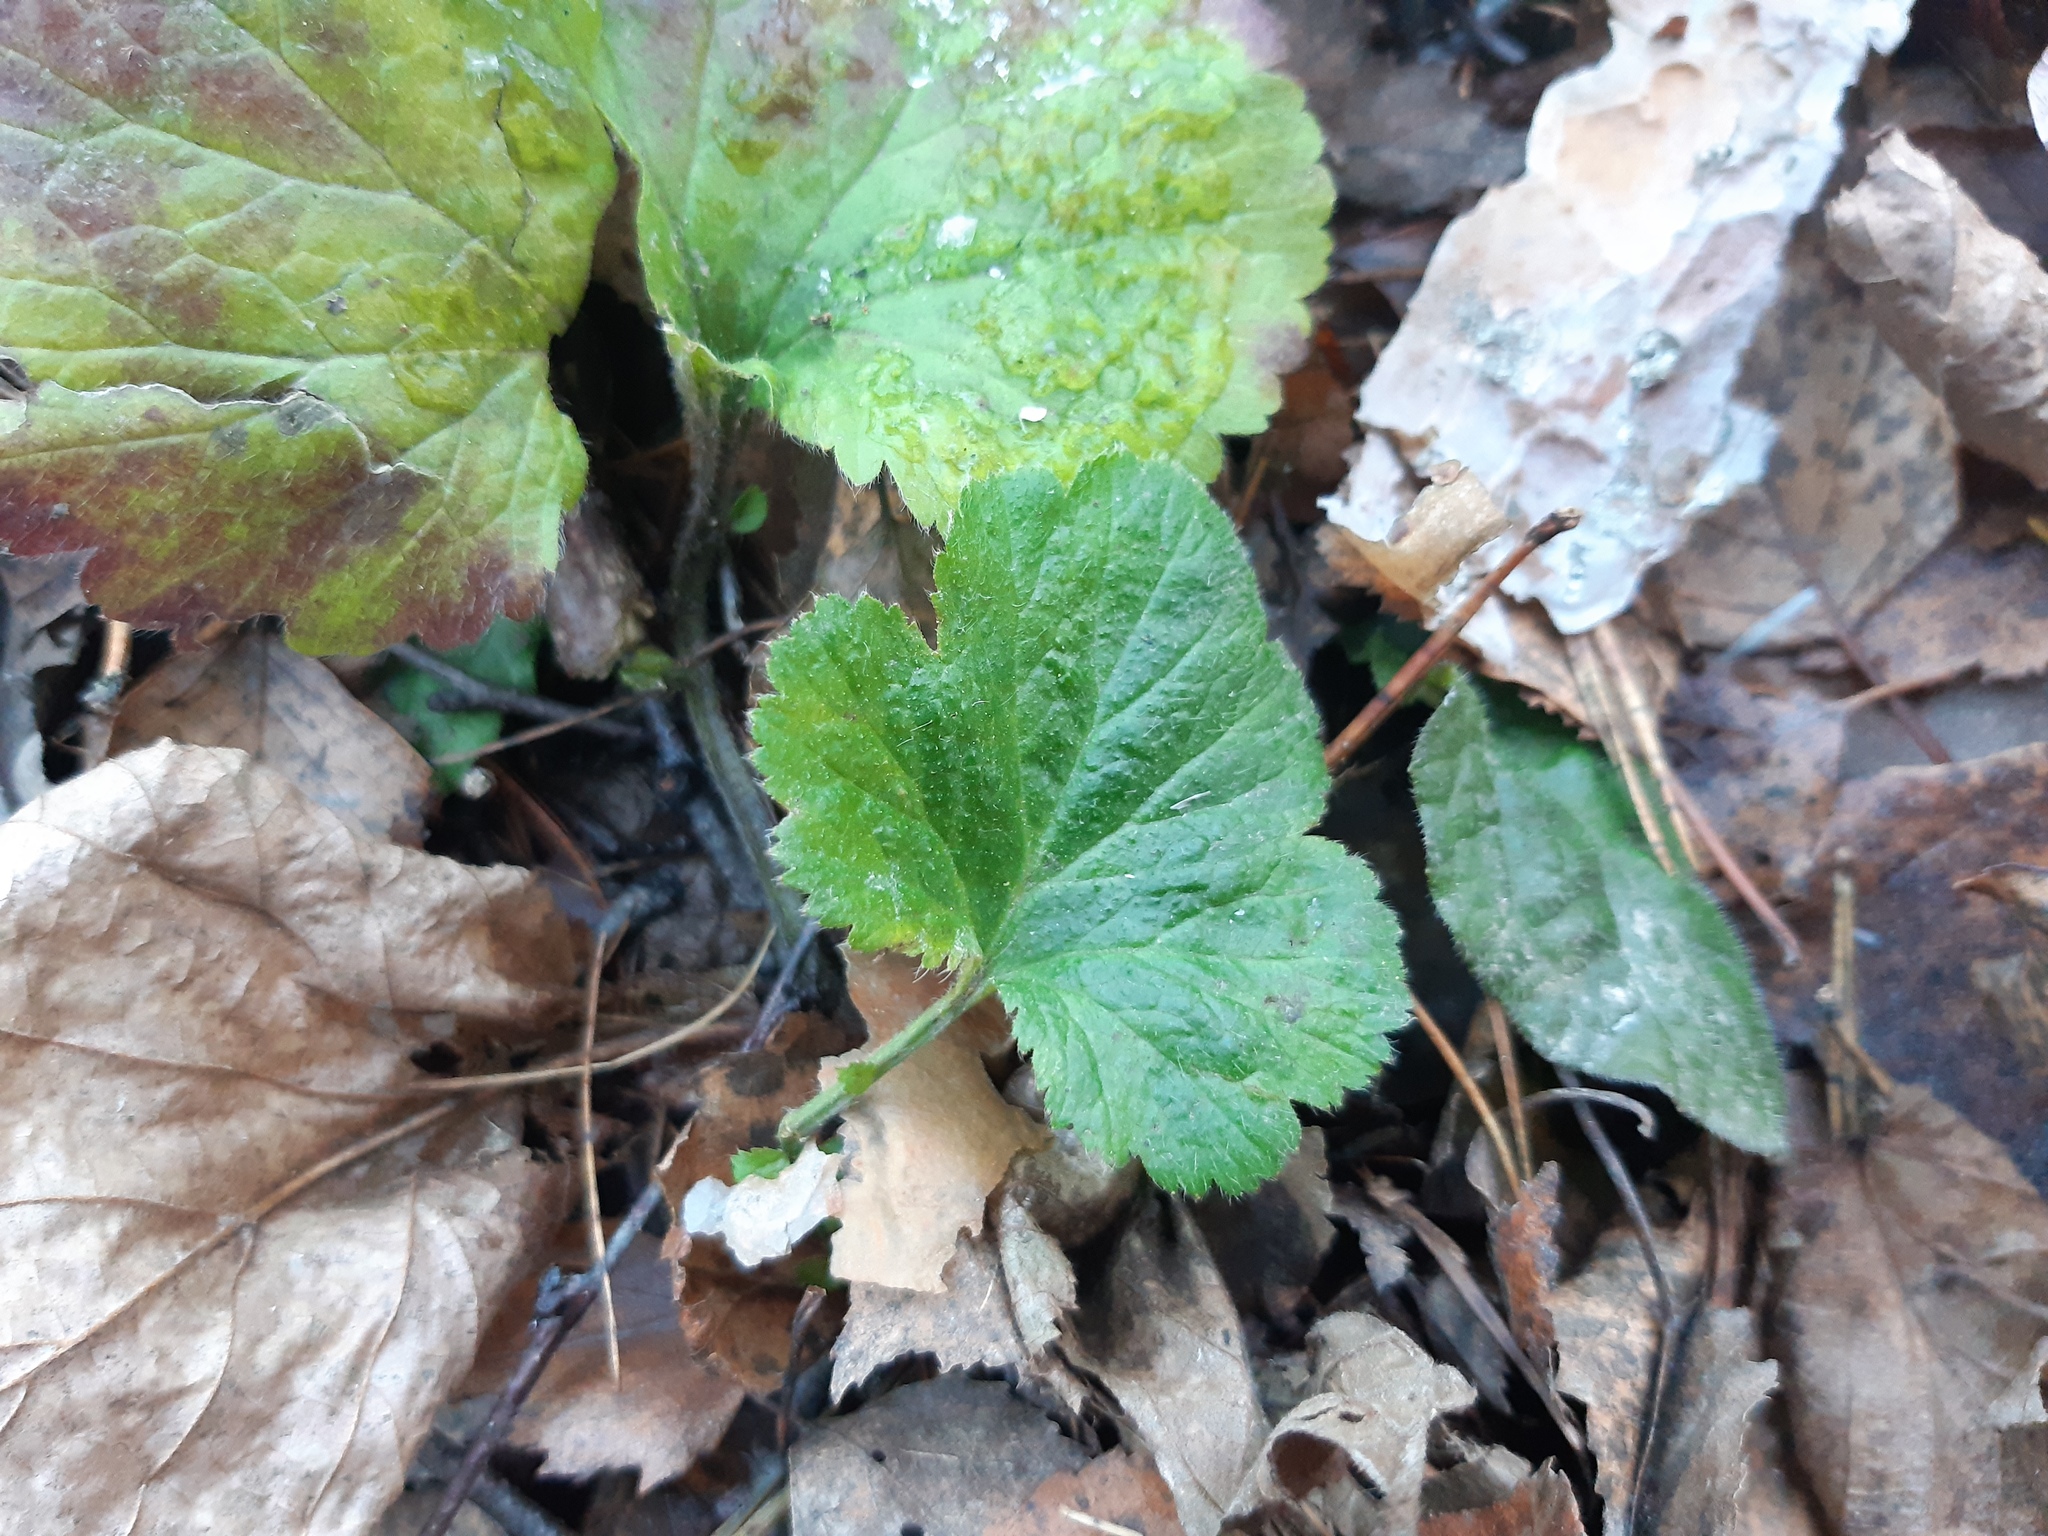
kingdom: Plantae
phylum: Tracheophyta
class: Magnoliopsida
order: Rosales
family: Rosaceae
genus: Geum
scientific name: Geum
